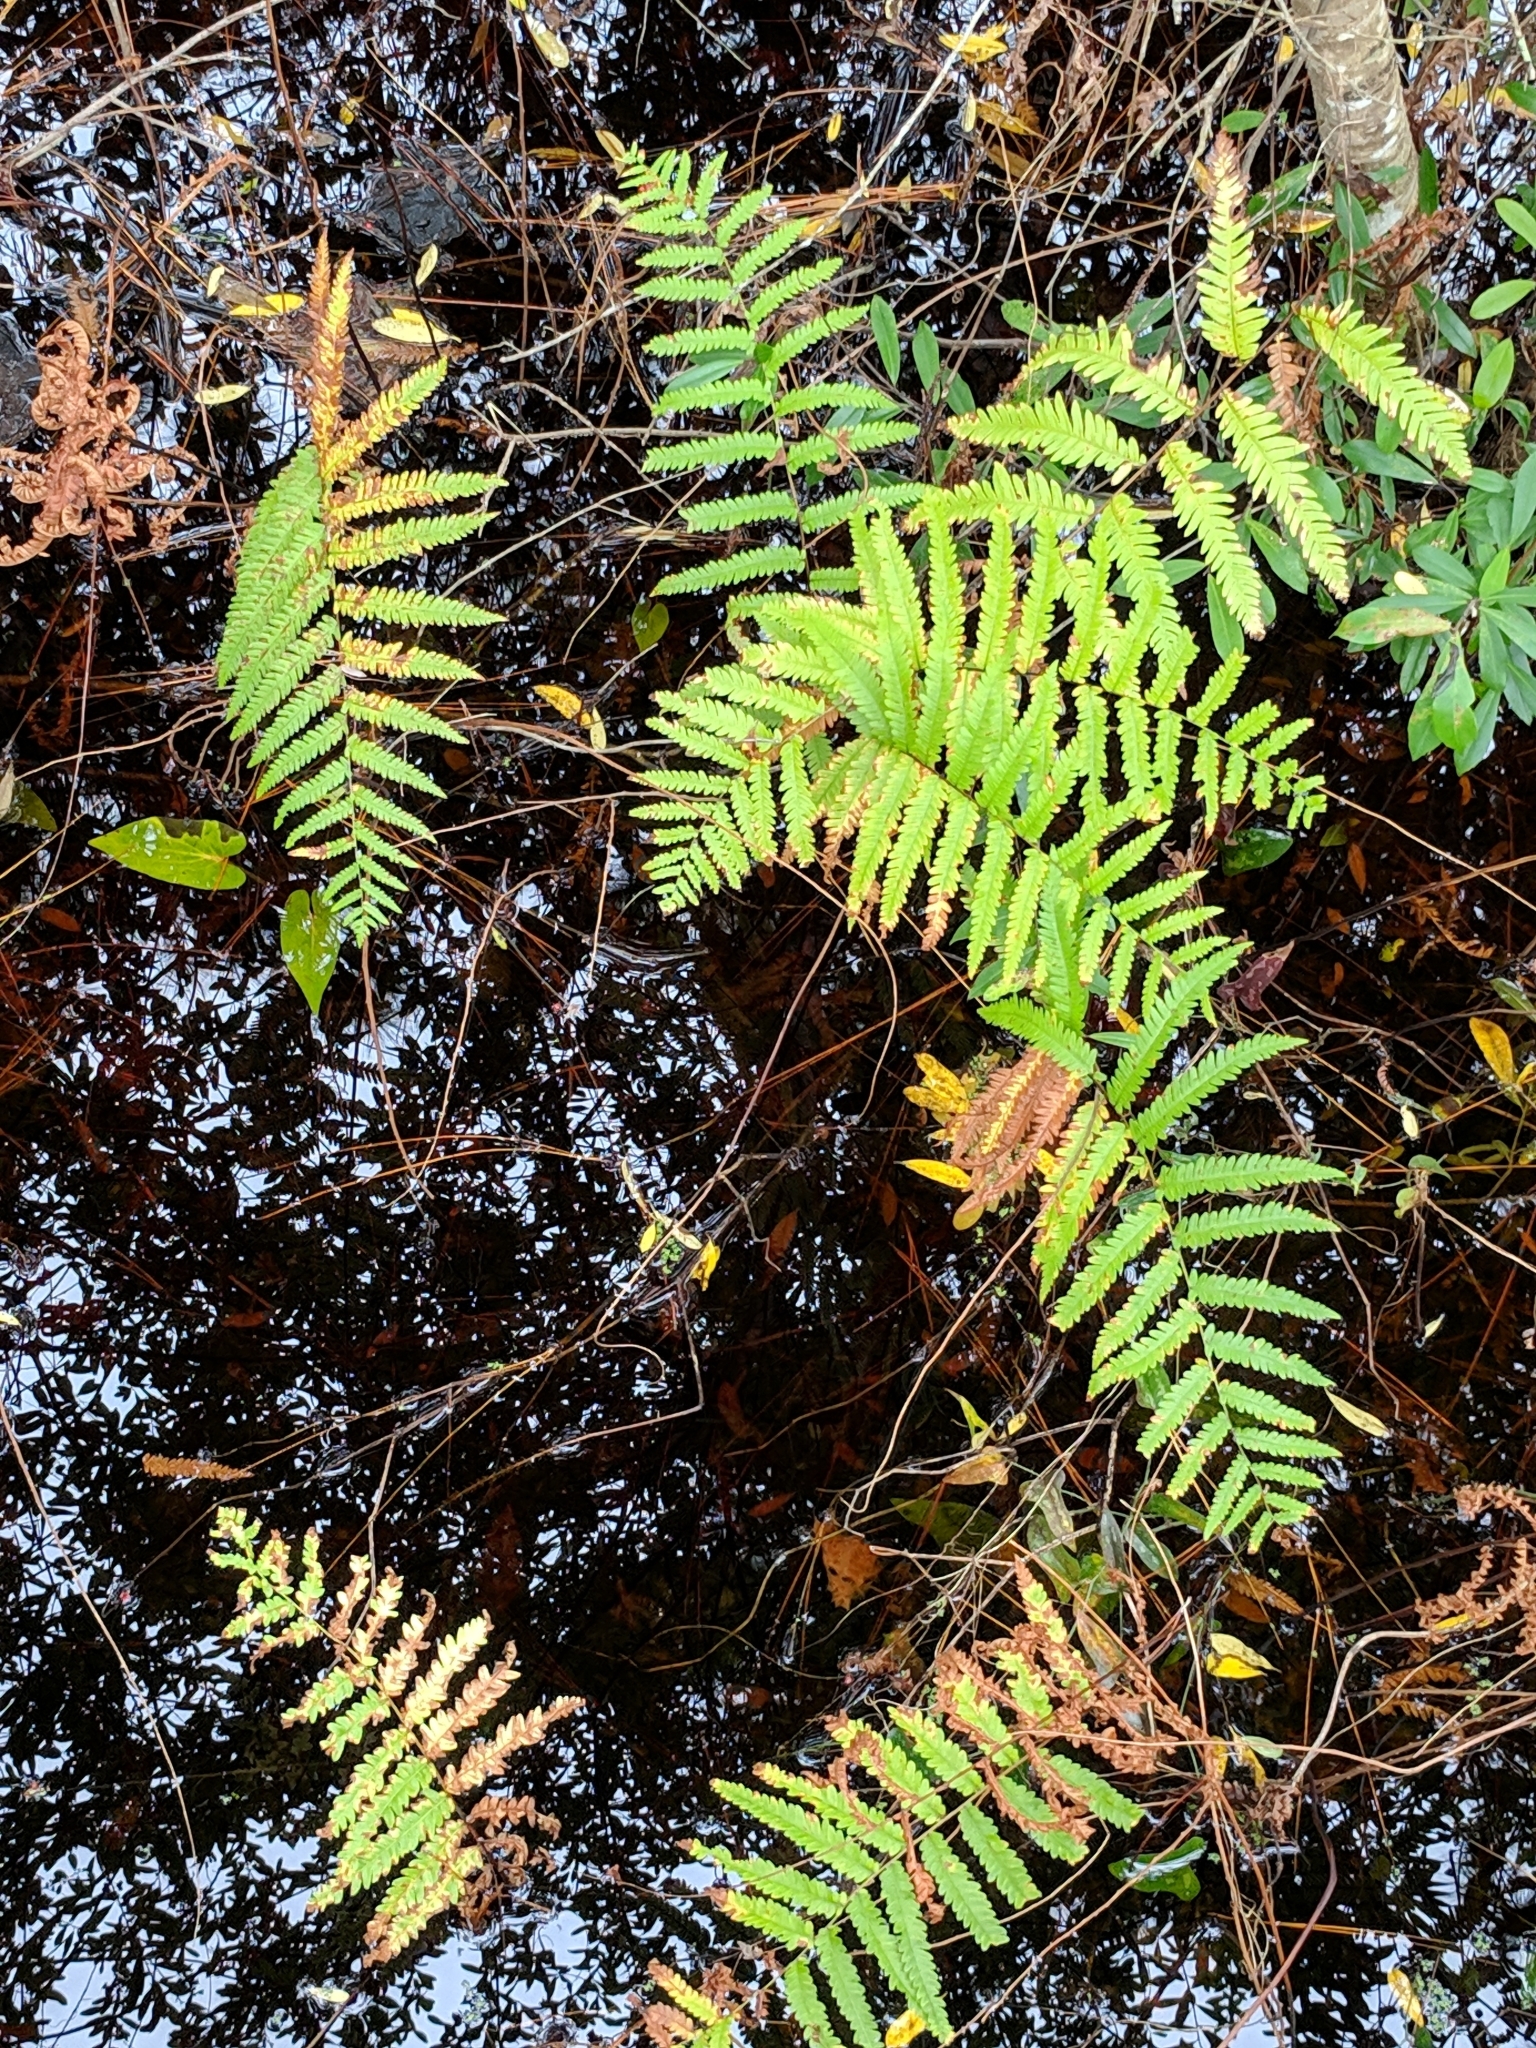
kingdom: Plantae
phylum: Tracheophyta
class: Polypodiopsida
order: Polypodiales
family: Blechnaceae
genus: Anchistea
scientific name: Anchistea virginica
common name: Virginia chain fern
